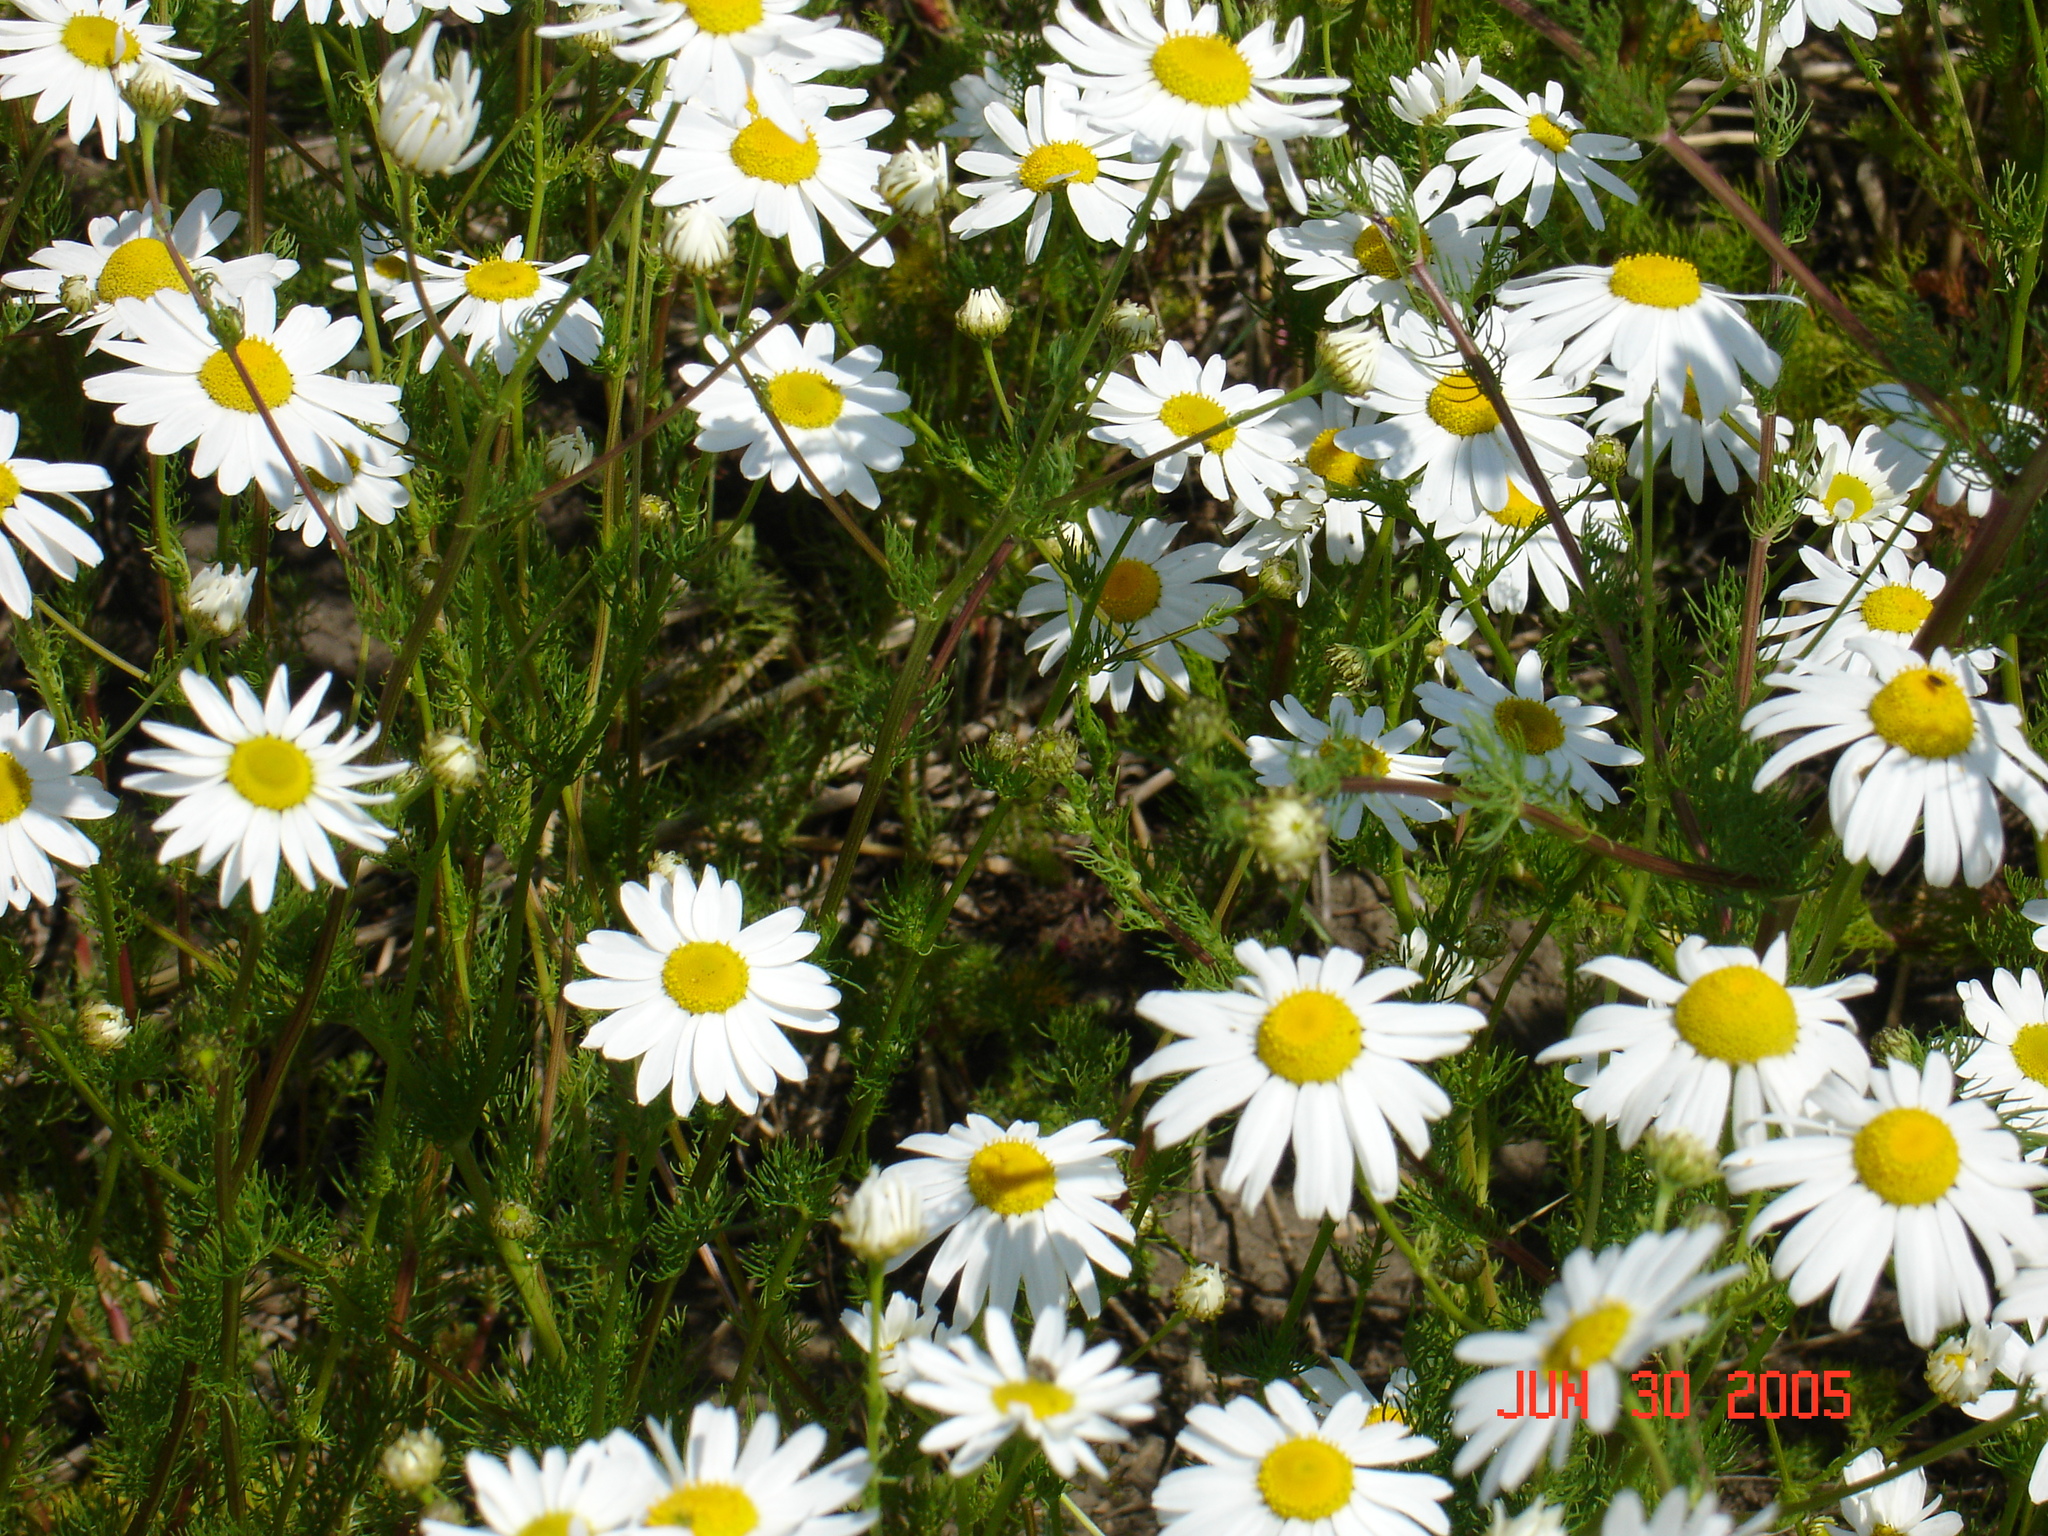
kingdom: Plantae
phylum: Tracheophyta
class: Magnoliopsida
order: Asterales
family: Asteraceae
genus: Tripleurospermum
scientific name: Tripleurospermum inodorum
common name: Scentless mayweed
